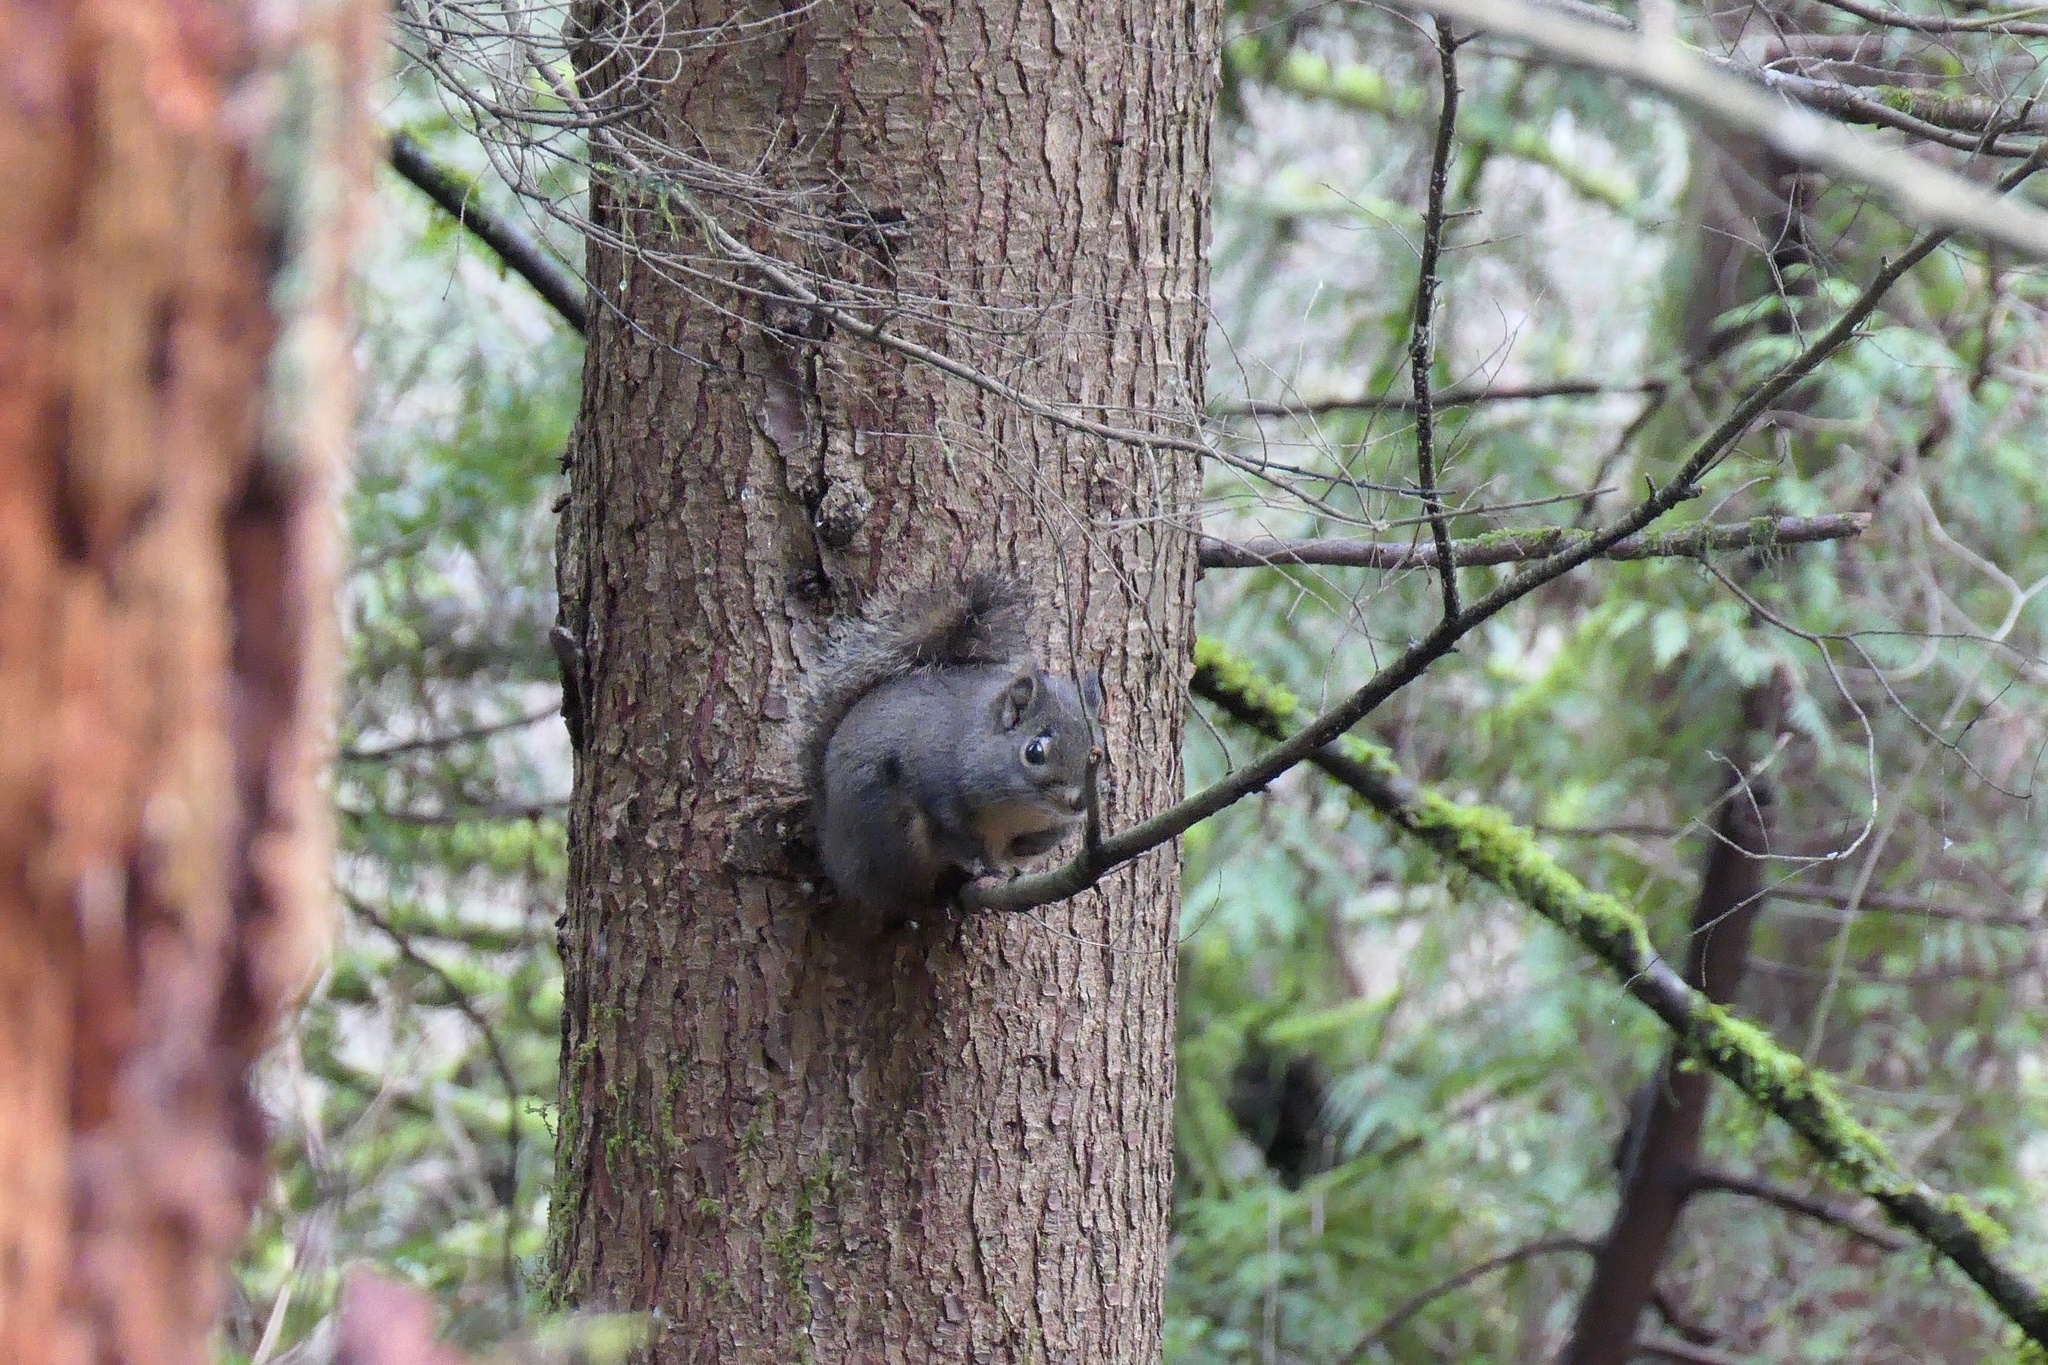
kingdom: Animalia
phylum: Chordata
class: Mammalia
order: Rodentia
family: Sciuridae
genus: Tamiasciurus
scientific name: Tamiasciurus douglasii
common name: Douglas's squirrel
